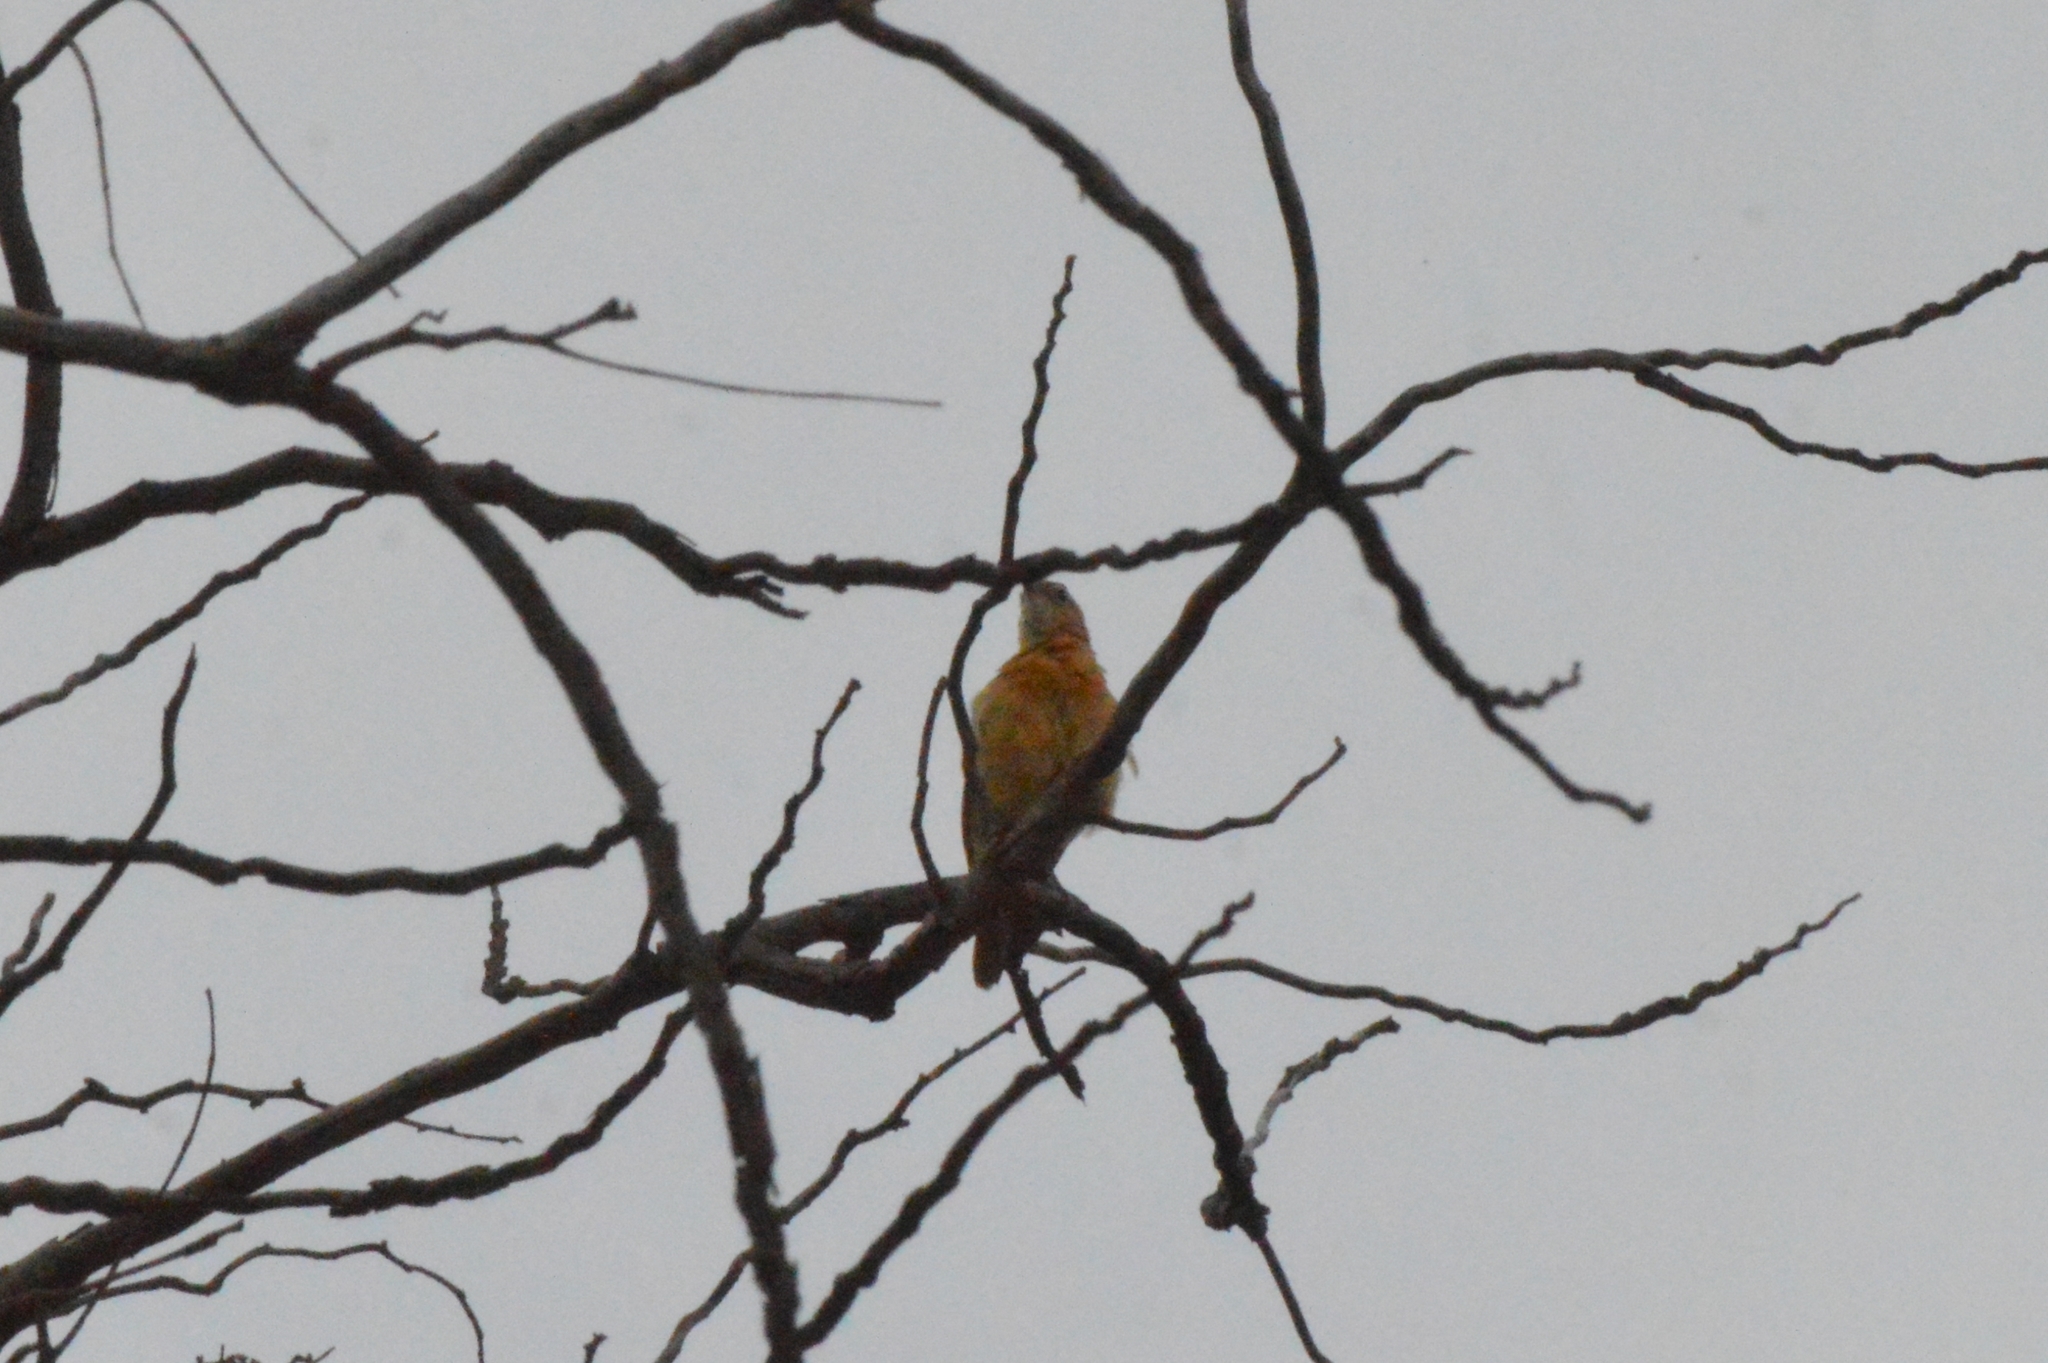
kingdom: Animalia
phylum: Chordata
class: Aves
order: Passeriformes
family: Furnariidae
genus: Furnarius
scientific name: Furnarius rufus
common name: Rufous hornero
